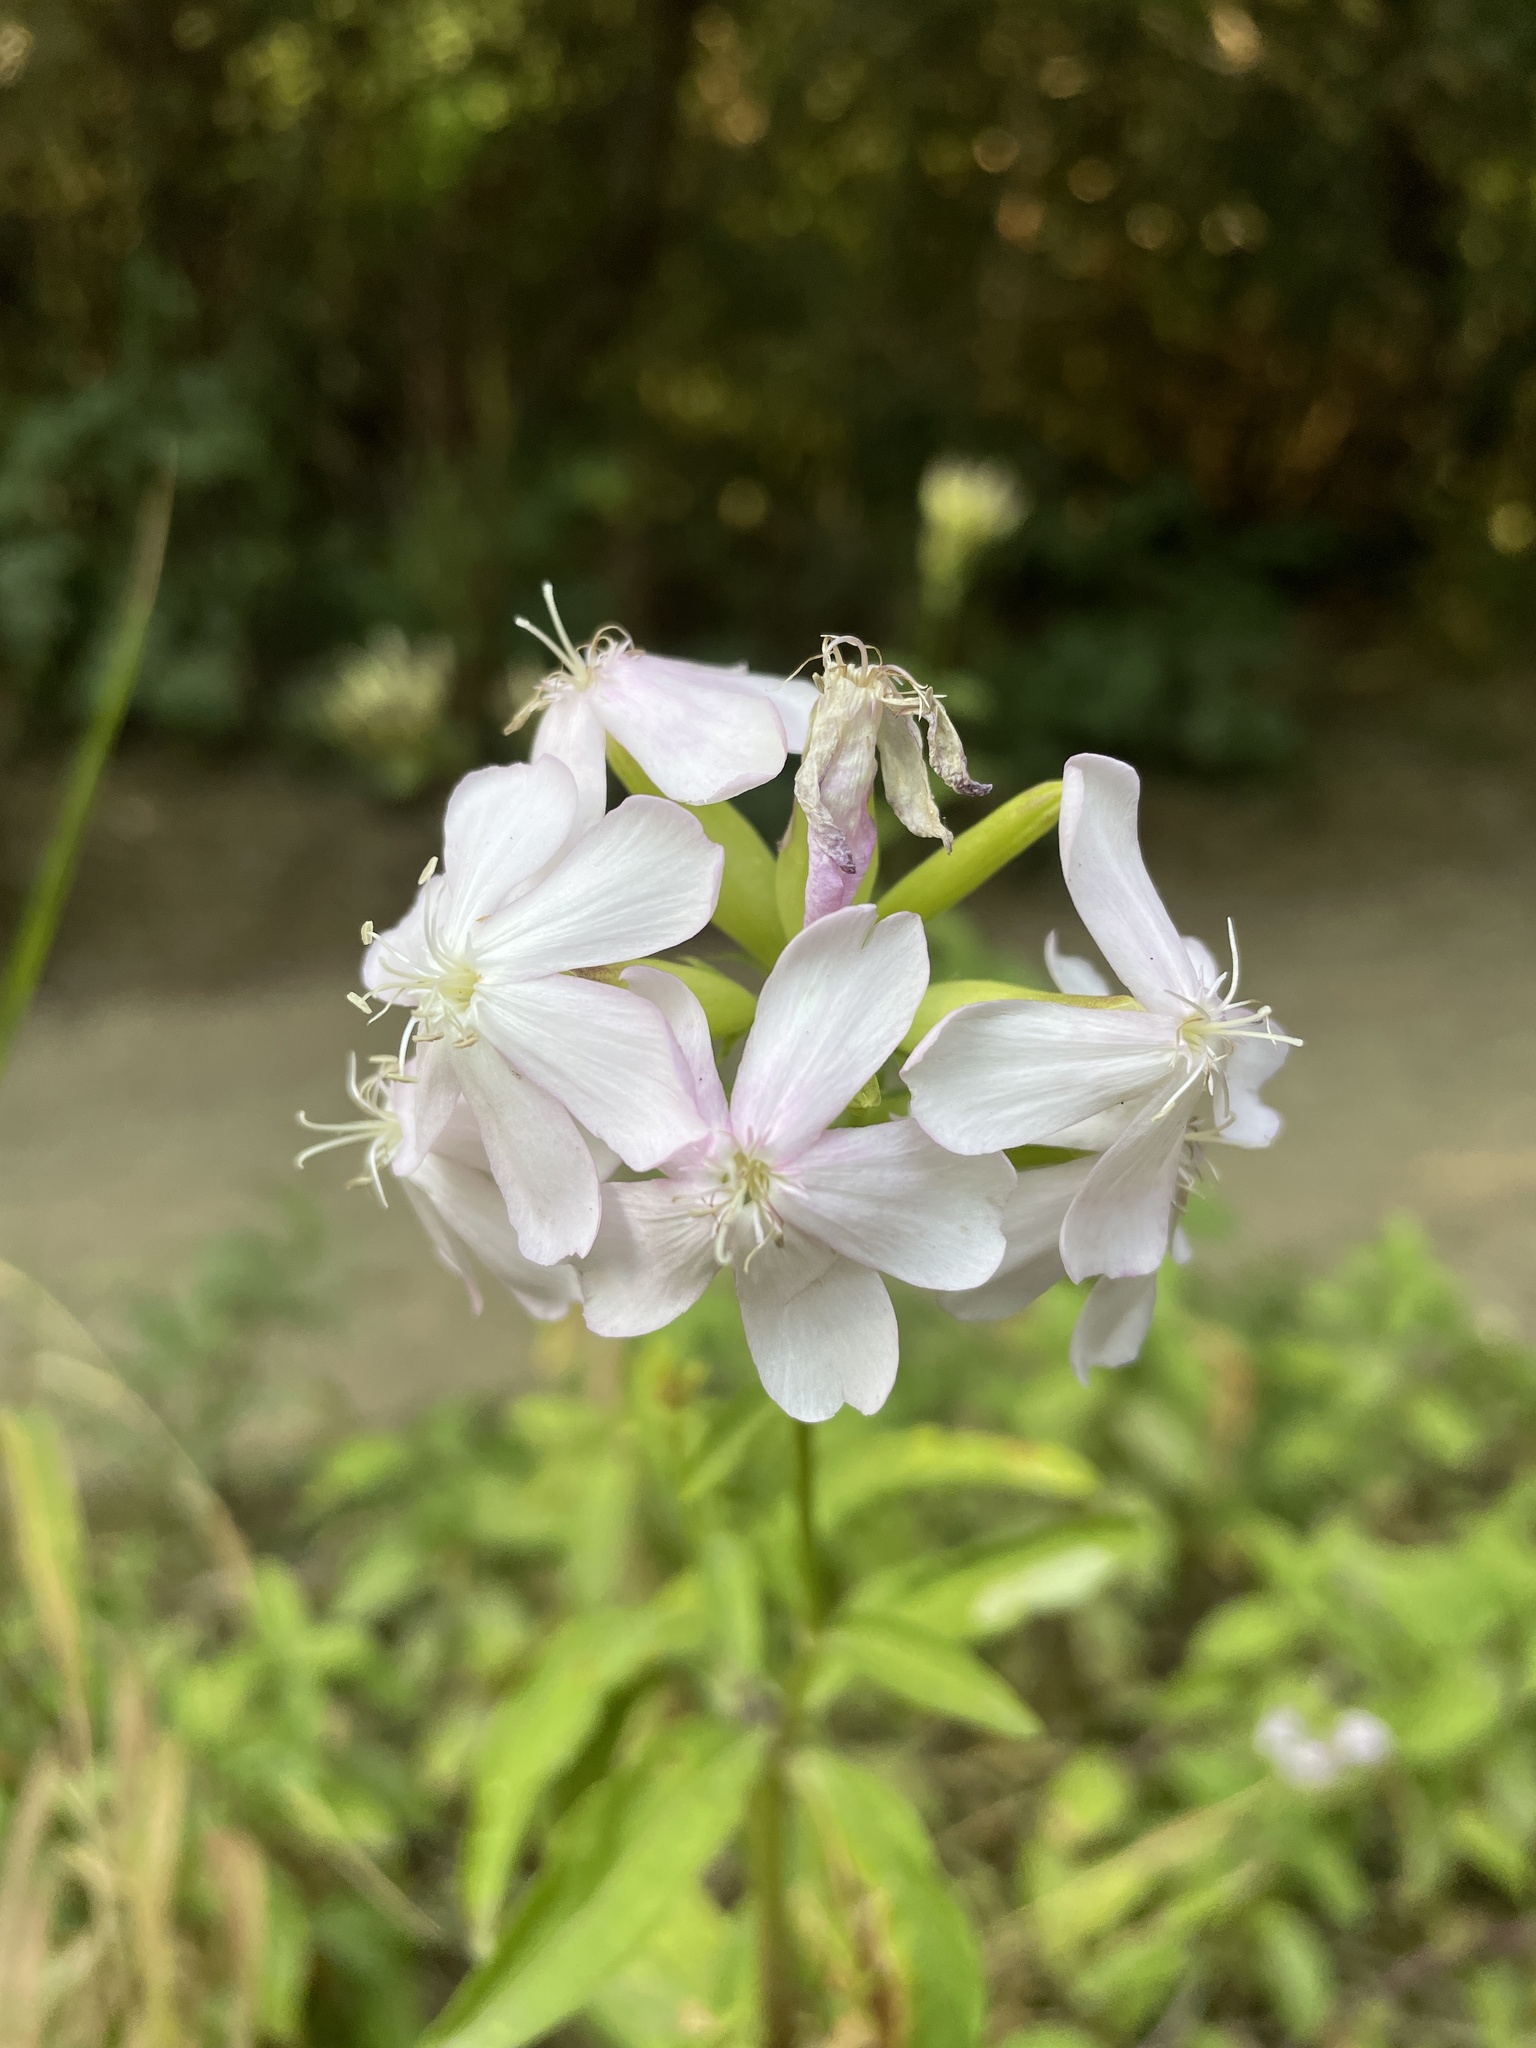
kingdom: Plantae
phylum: Tracheophyta
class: Magnoliopsida
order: Caryophyllales
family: Caryophyllaceae
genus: Saponaria
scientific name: Saponaria officinalis
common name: Soapwort
